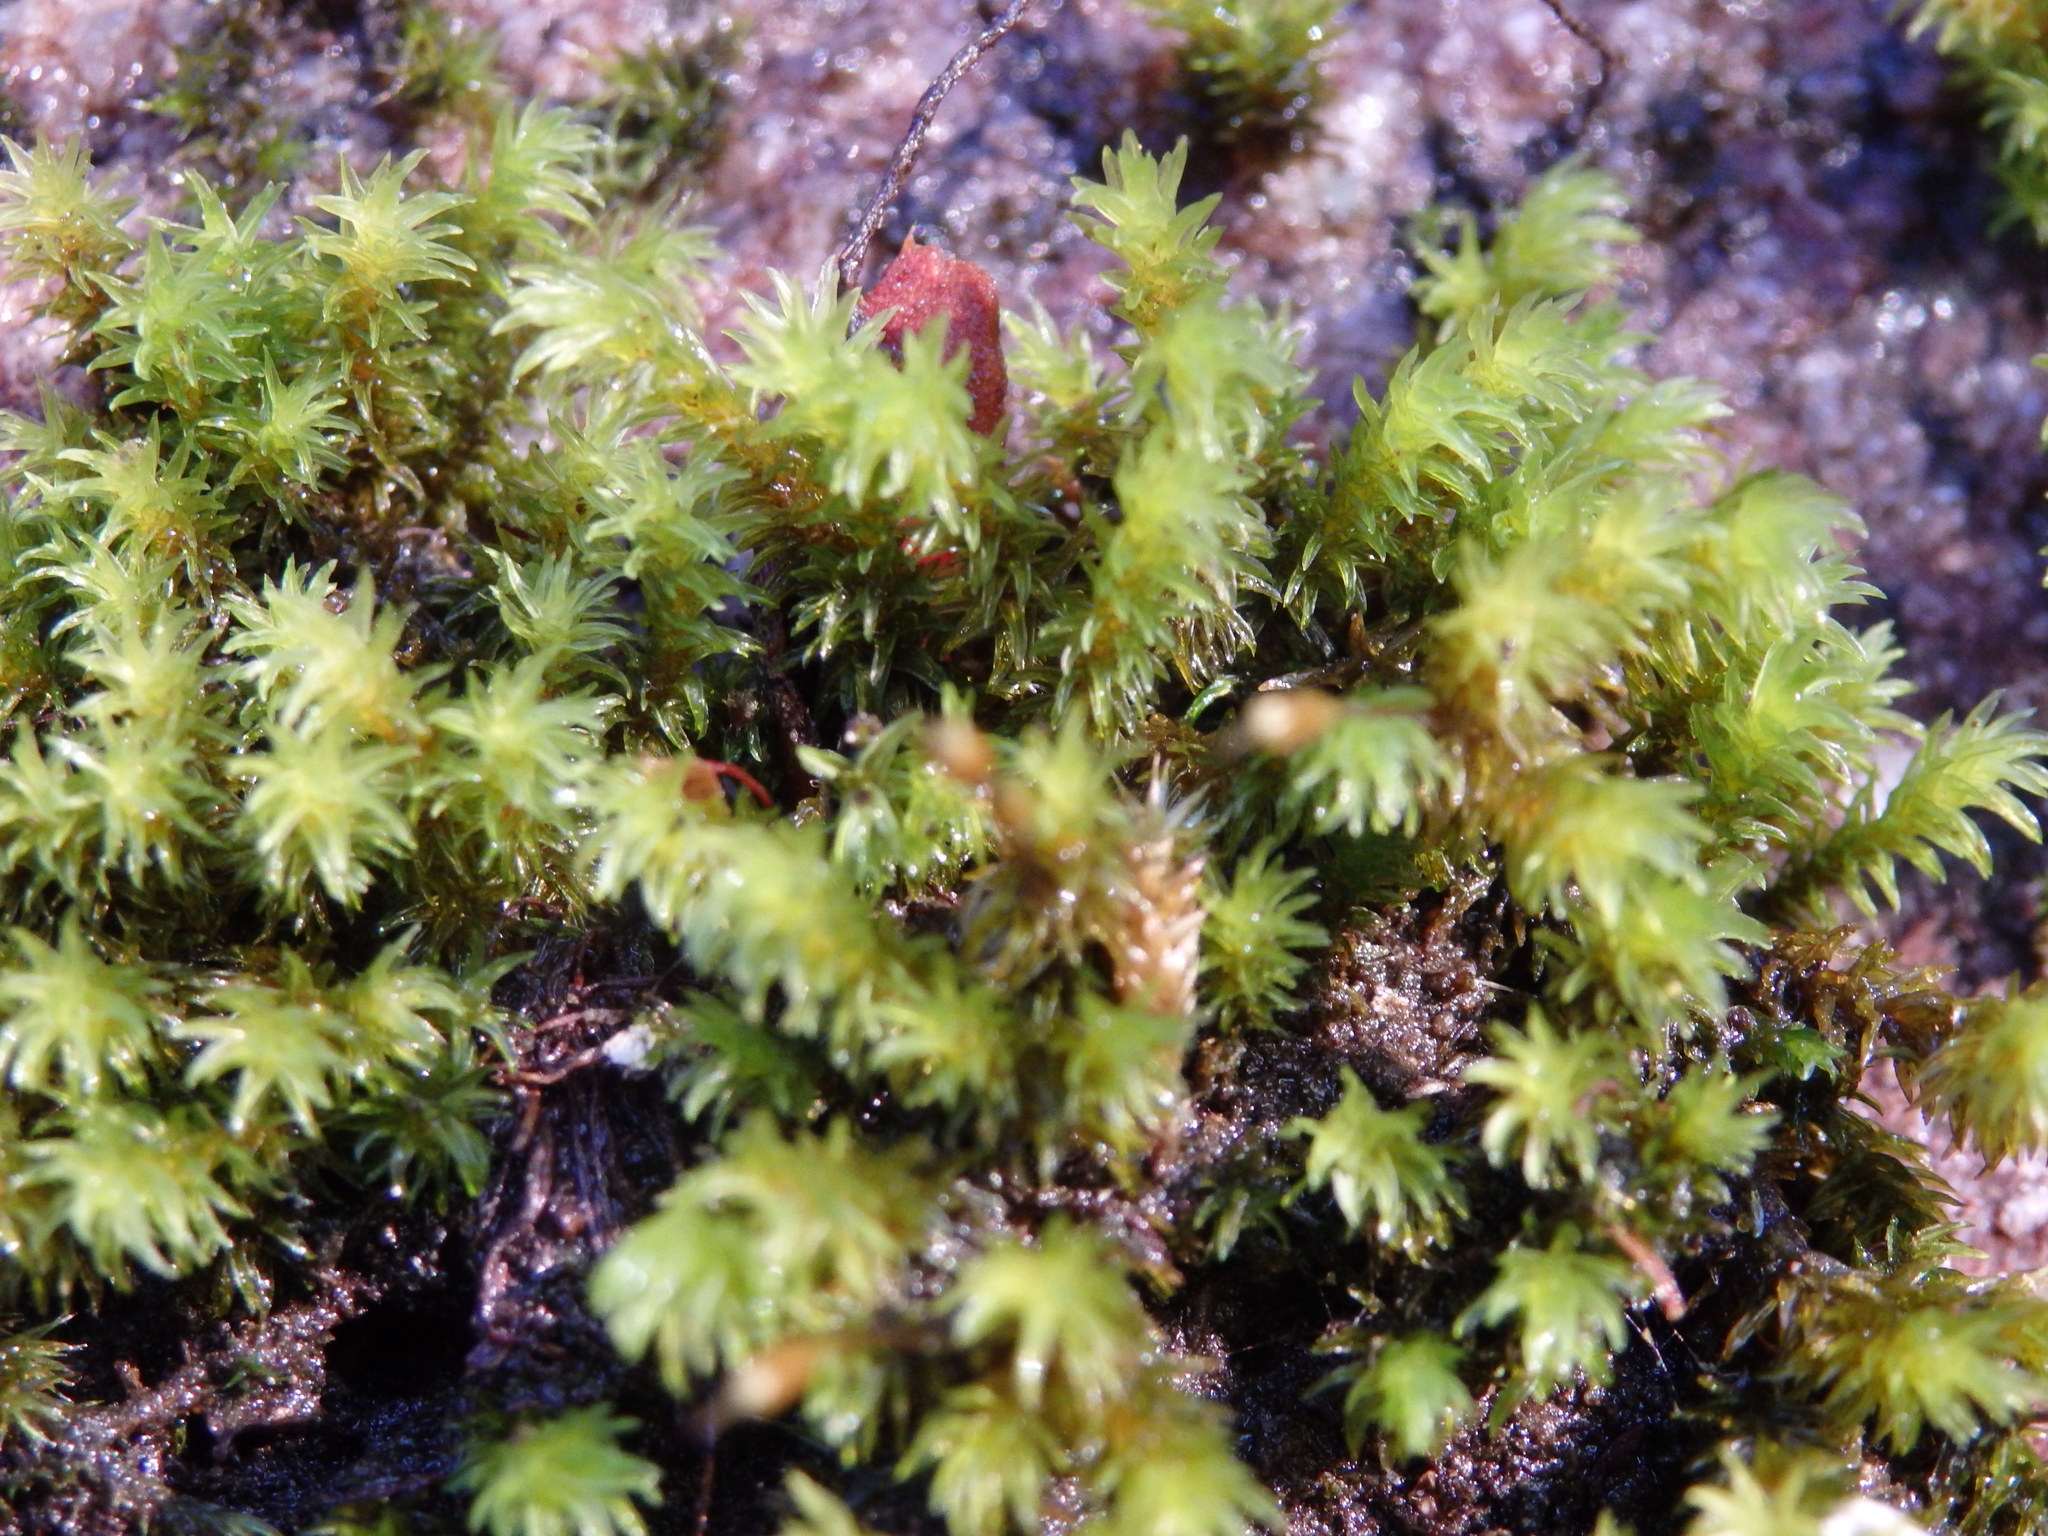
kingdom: Plantae
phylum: Bryophyta
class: Bryopsida
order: Grimmiales
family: Grimmiaceae
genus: Codriophorus
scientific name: Codriophorus acicularis
